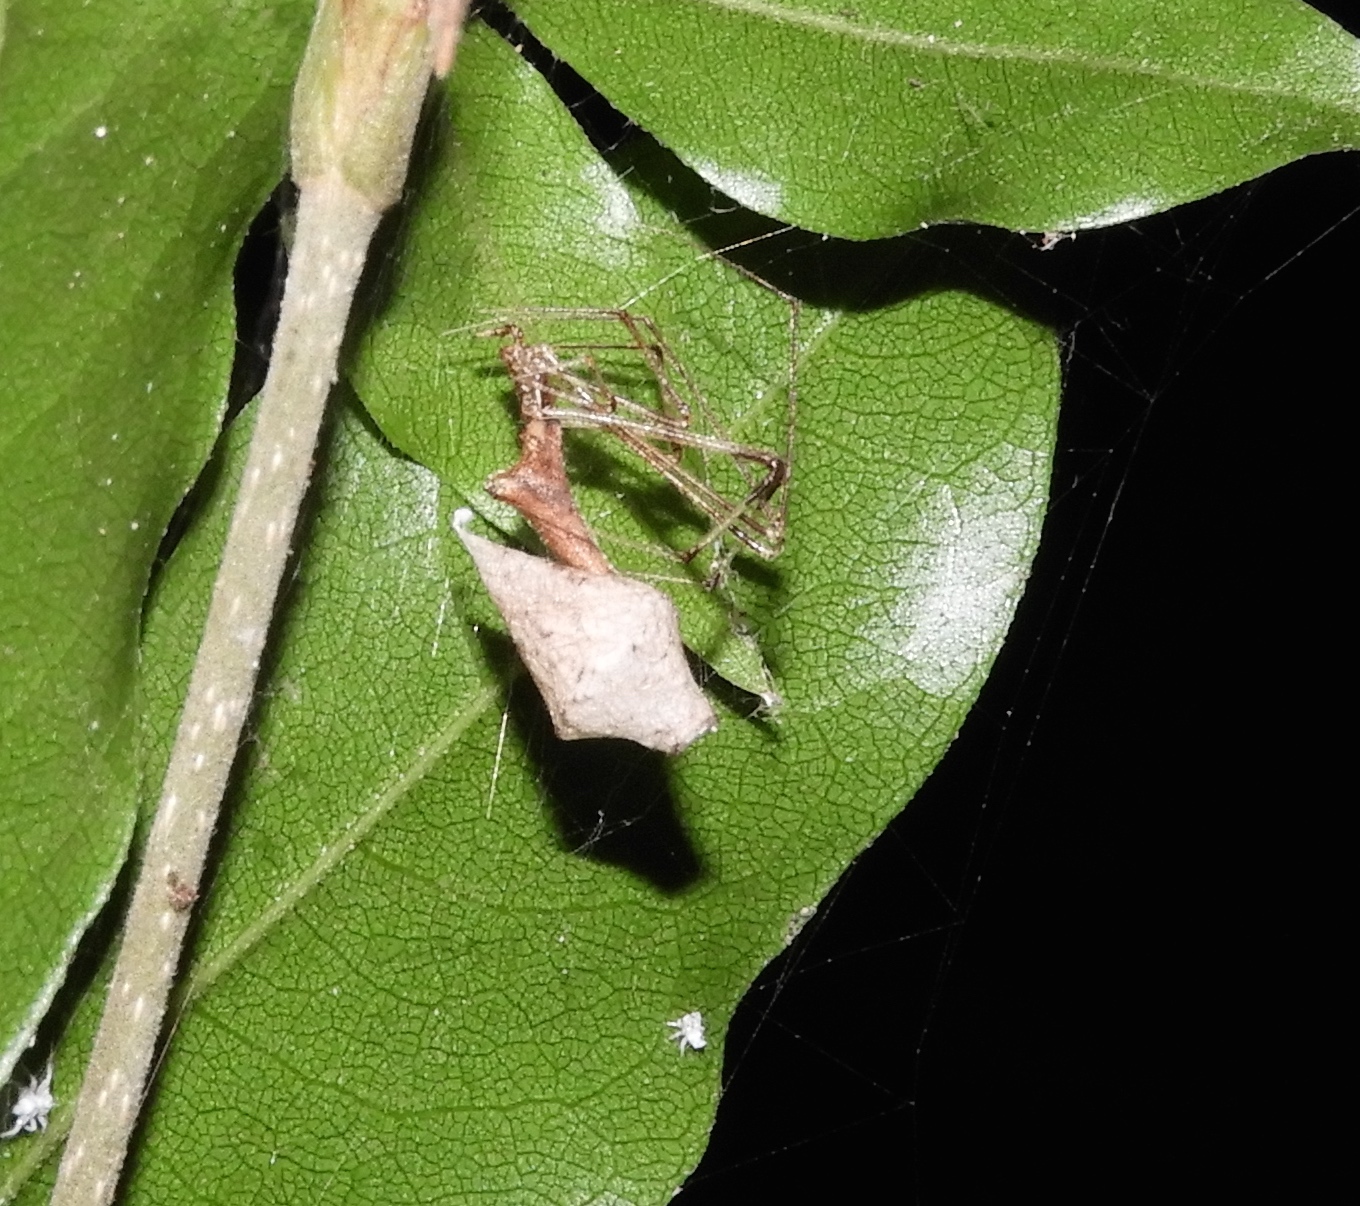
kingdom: Animalia
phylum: Arthropoda
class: Arachnida
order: Araneae
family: Theridiidae
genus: Rhomphaea
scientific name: Rhomphaea
